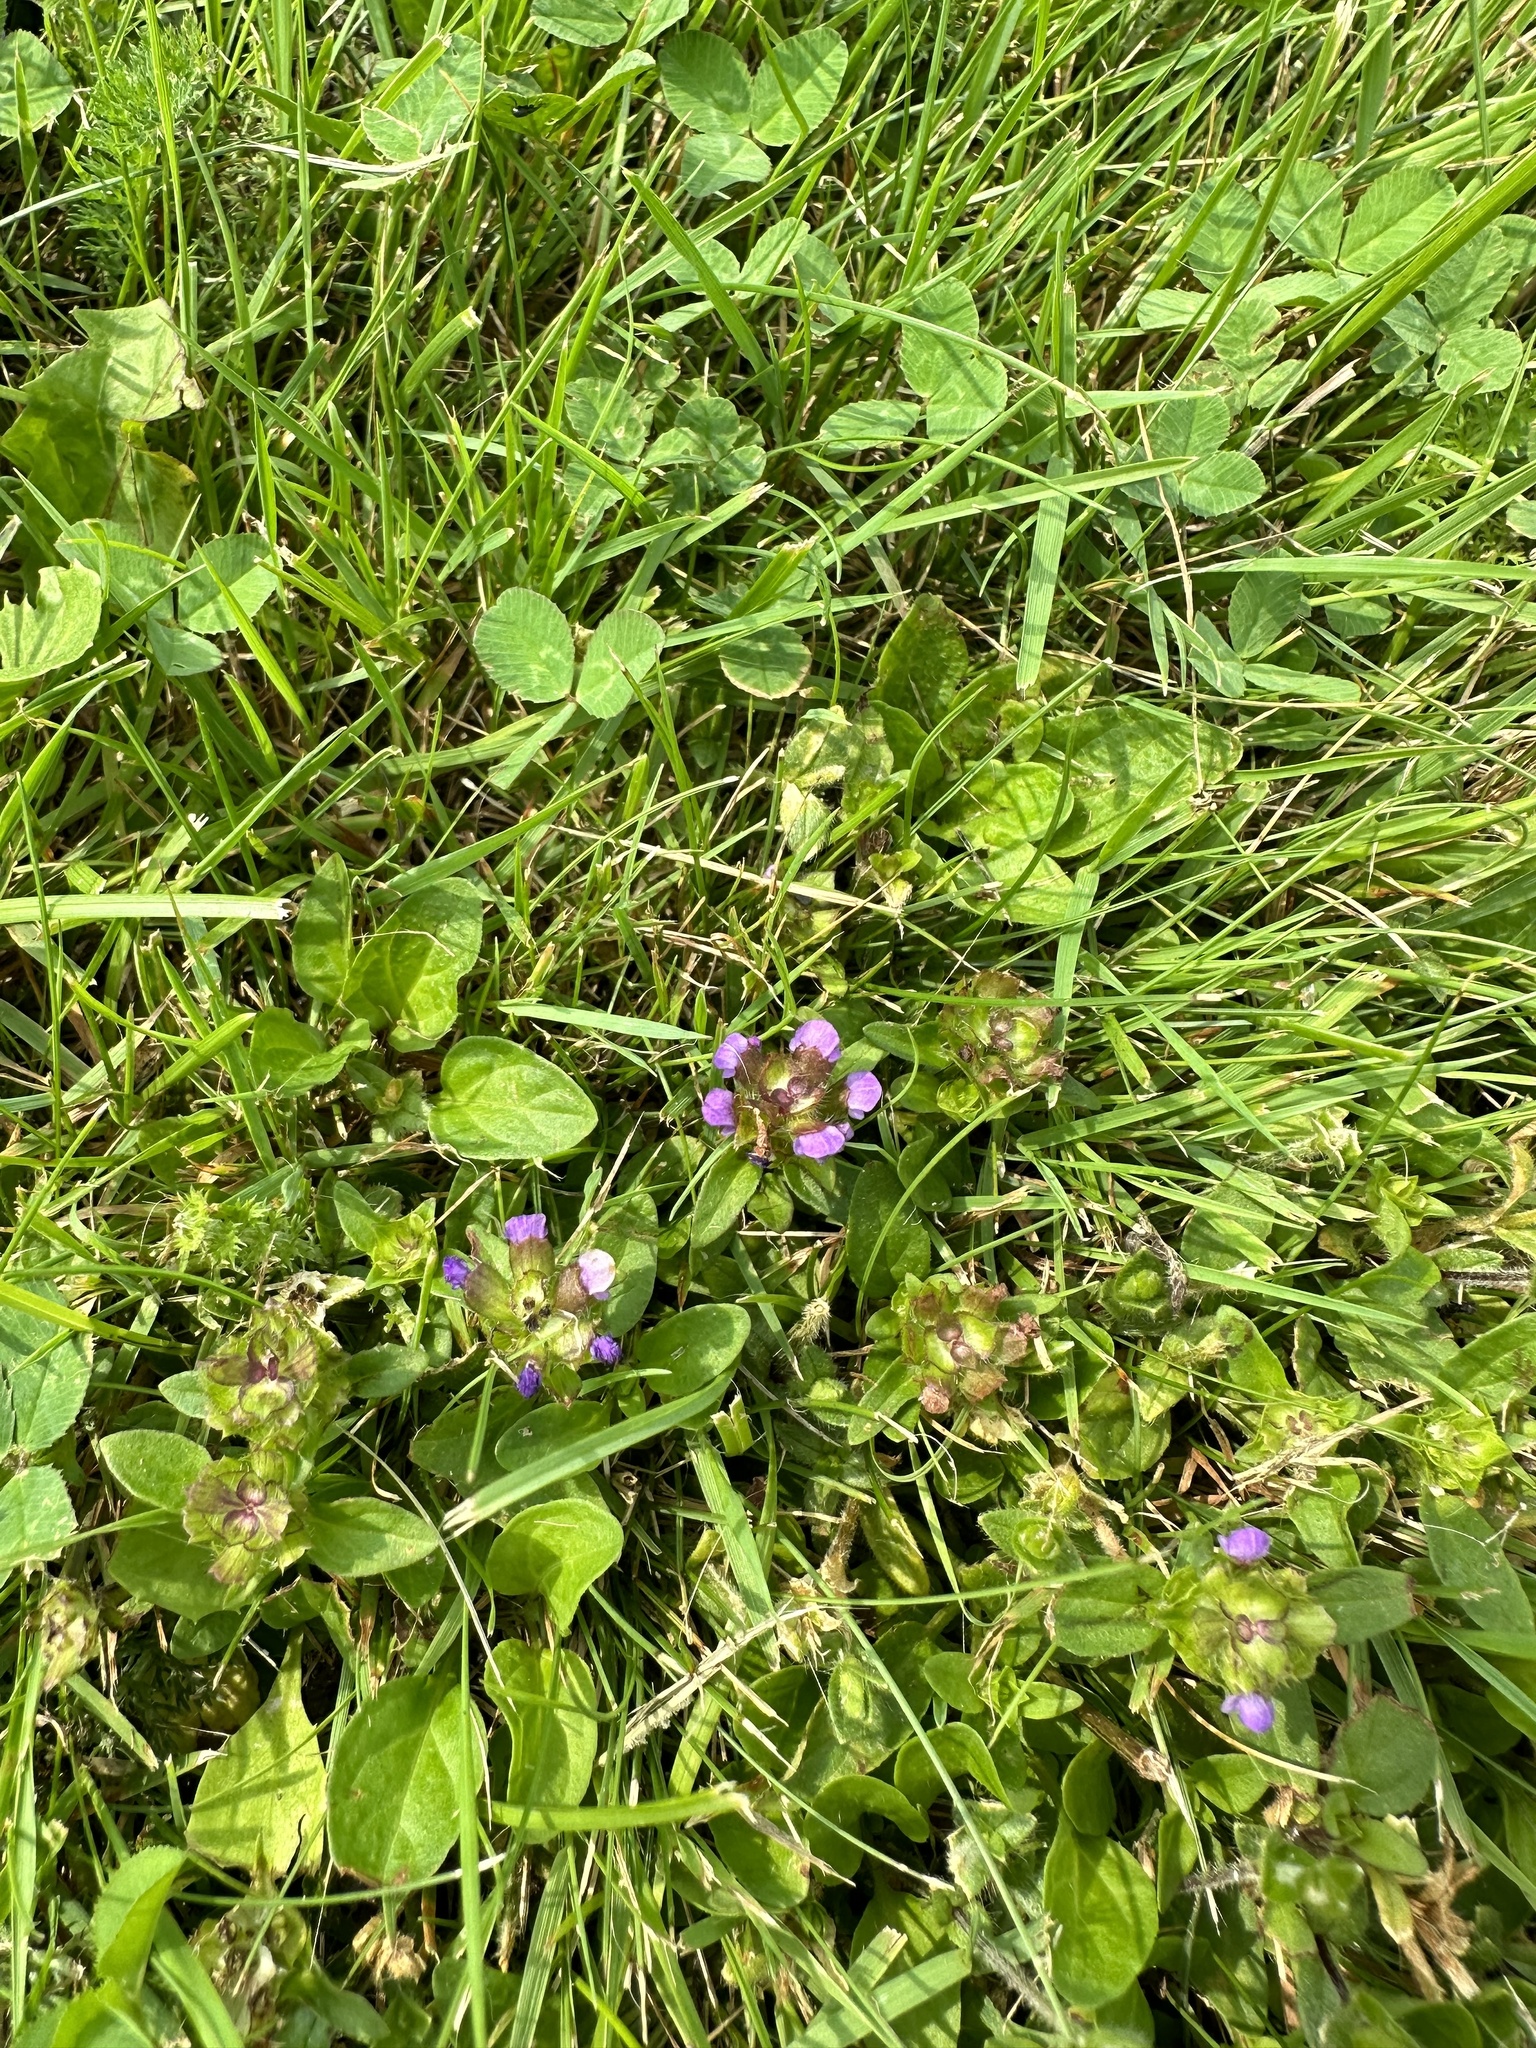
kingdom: Plantae
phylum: Tracheophyta
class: Magnoliopsida
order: Lamiales
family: Lamiaceae
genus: Prunella
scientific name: Prunella vulgaris
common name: Heal-all
